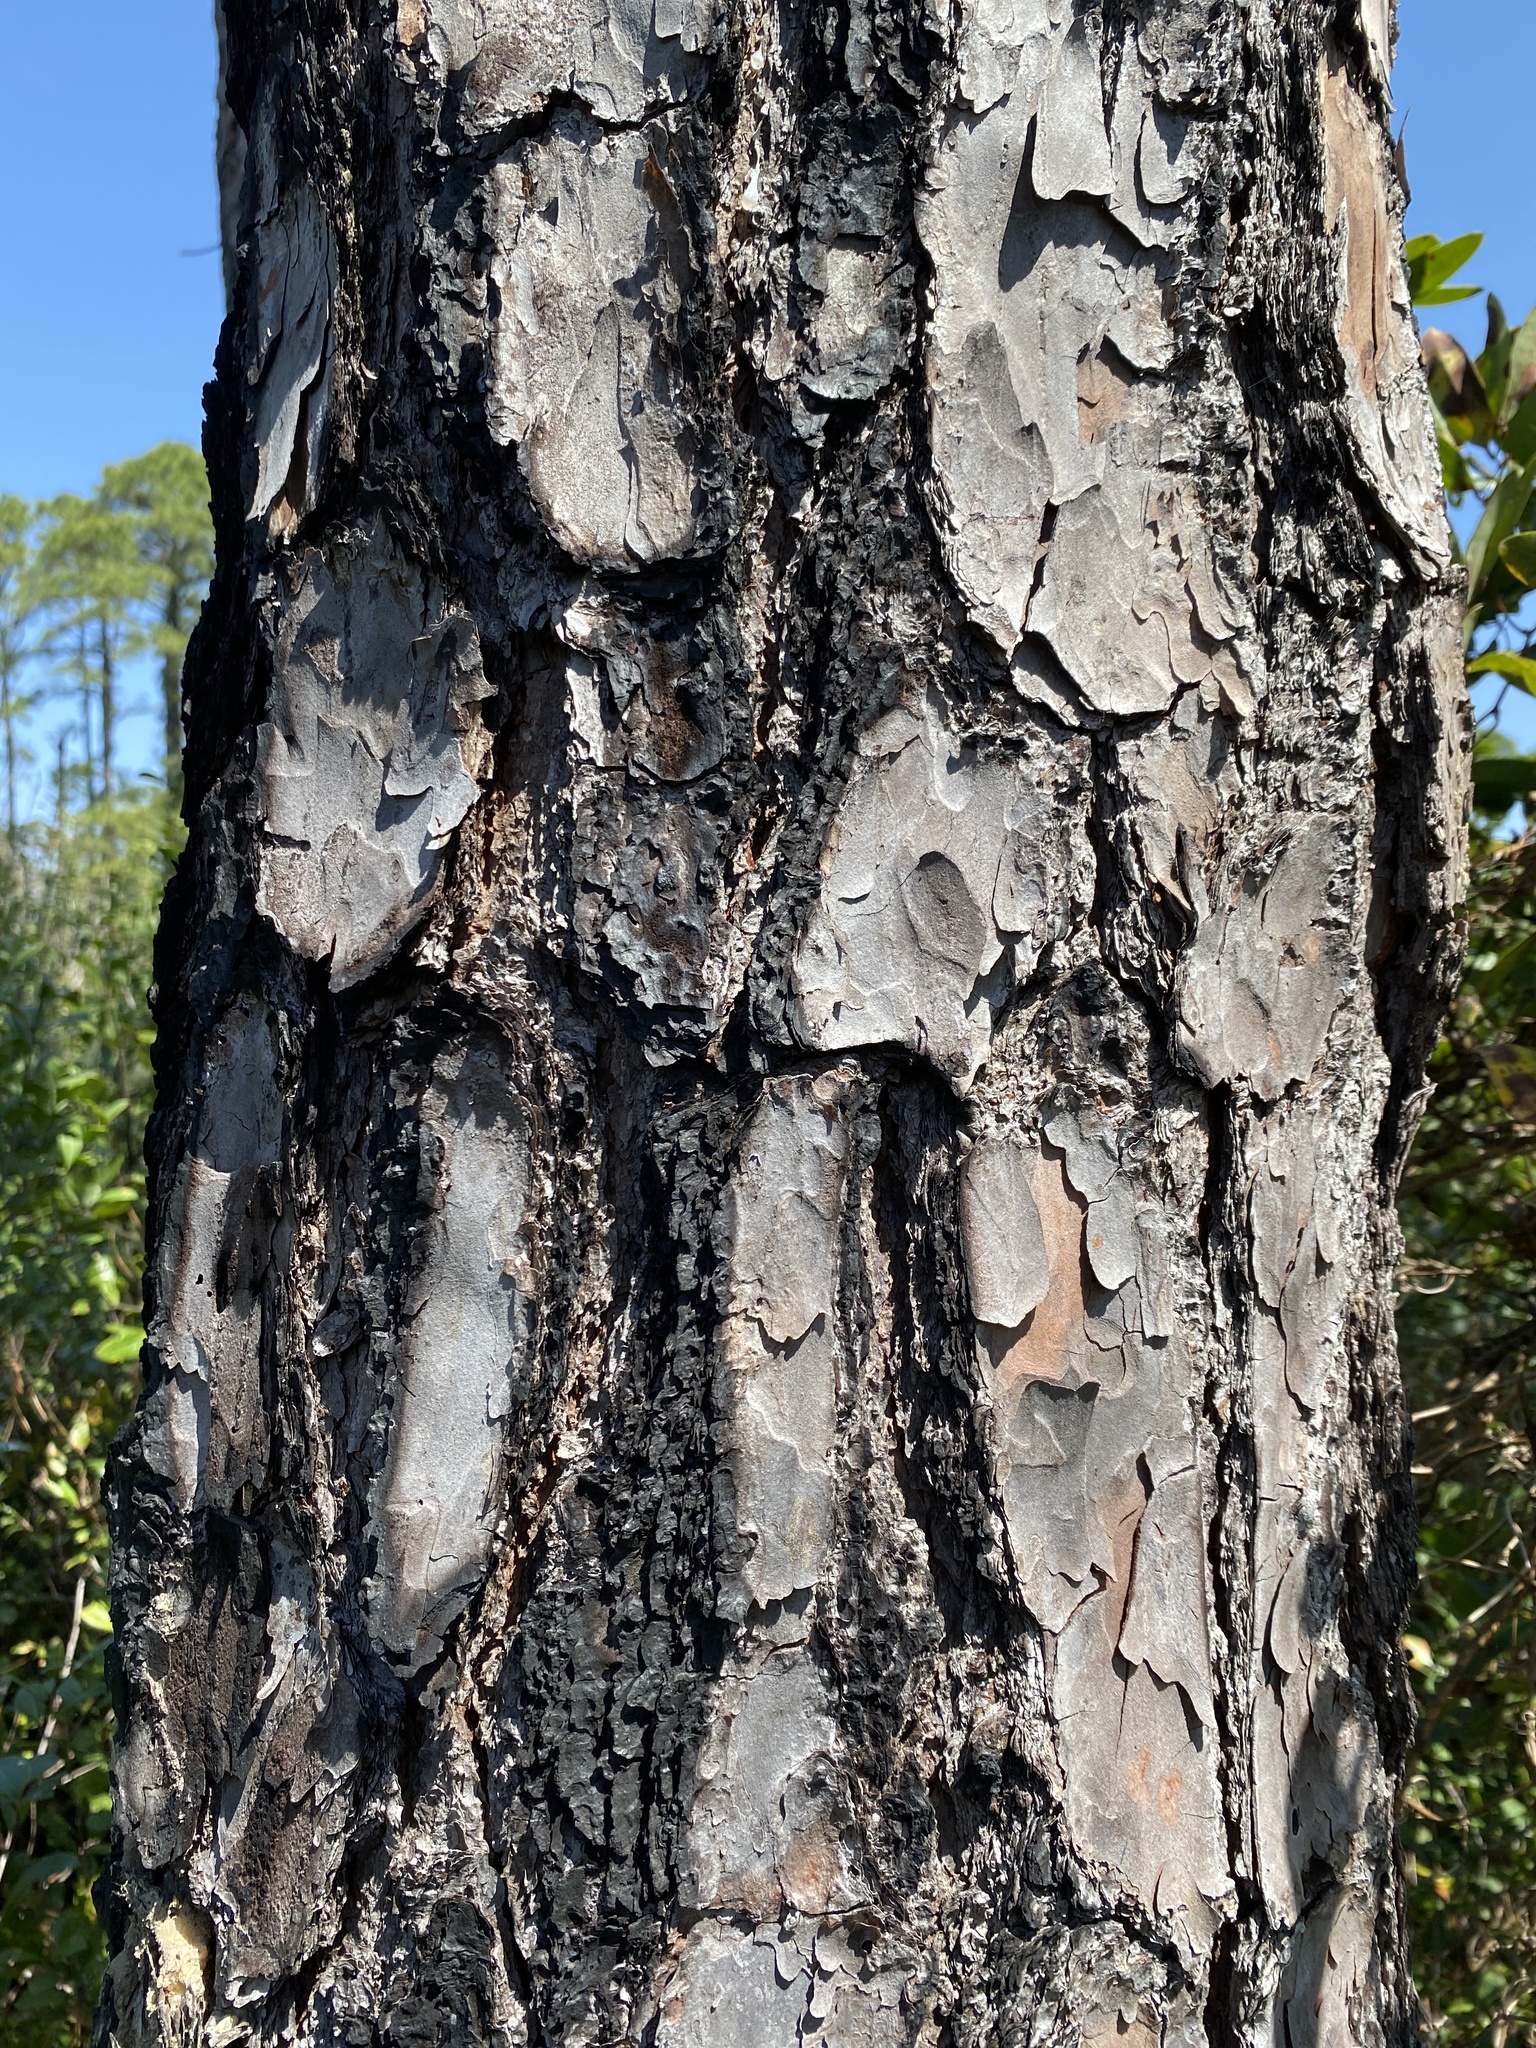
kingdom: Plantae
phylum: Tracheophyta
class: Pinopsida
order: Pinales
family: Pinaceae
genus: Pinus
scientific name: Pinus serotina
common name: Marsh pine
